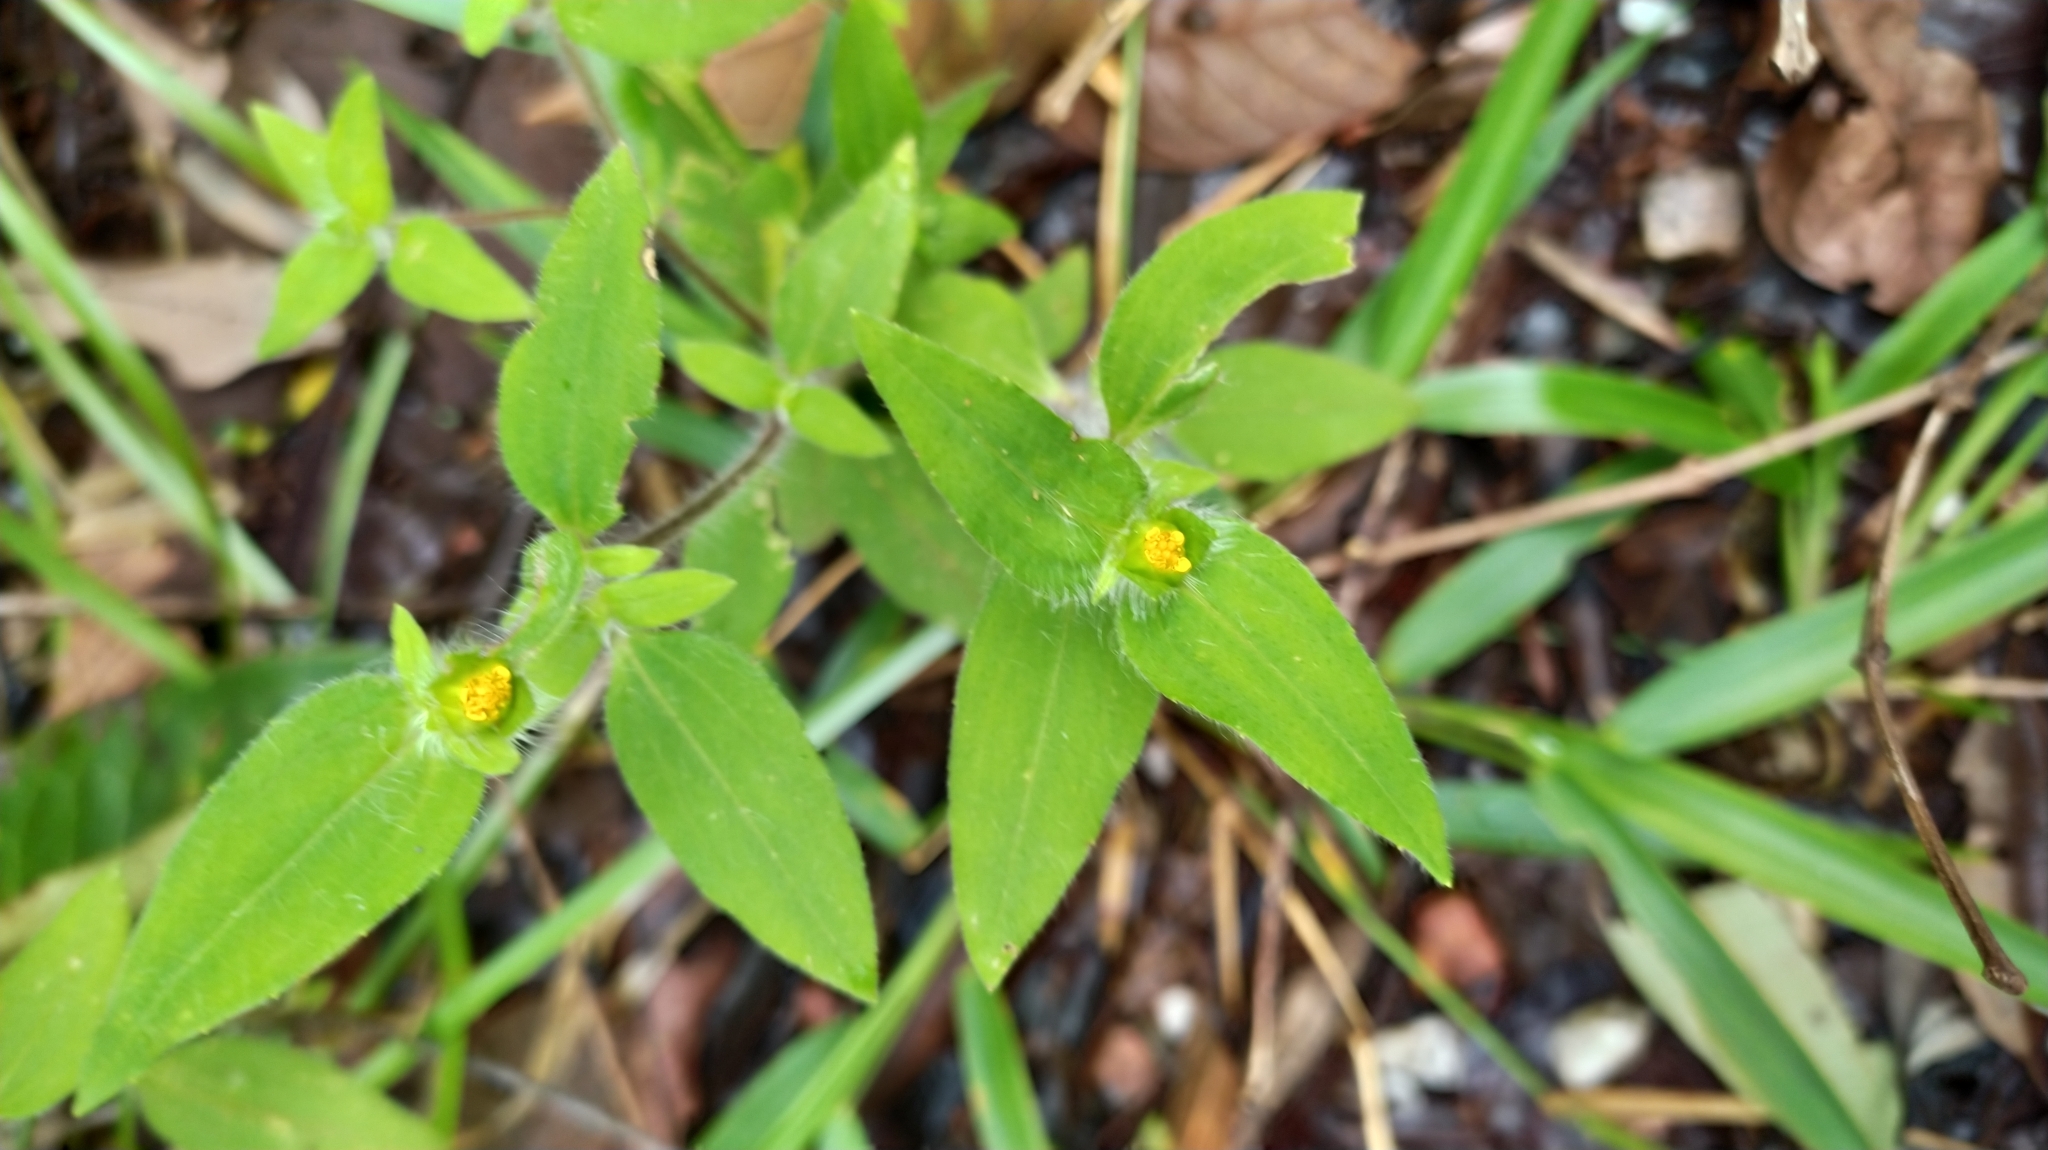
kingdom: Plantae
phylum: Tracheophyta
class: Magnoliopsida
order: Asterales
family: Asteraceae
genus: Unxia
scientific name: Unxia camphorata
